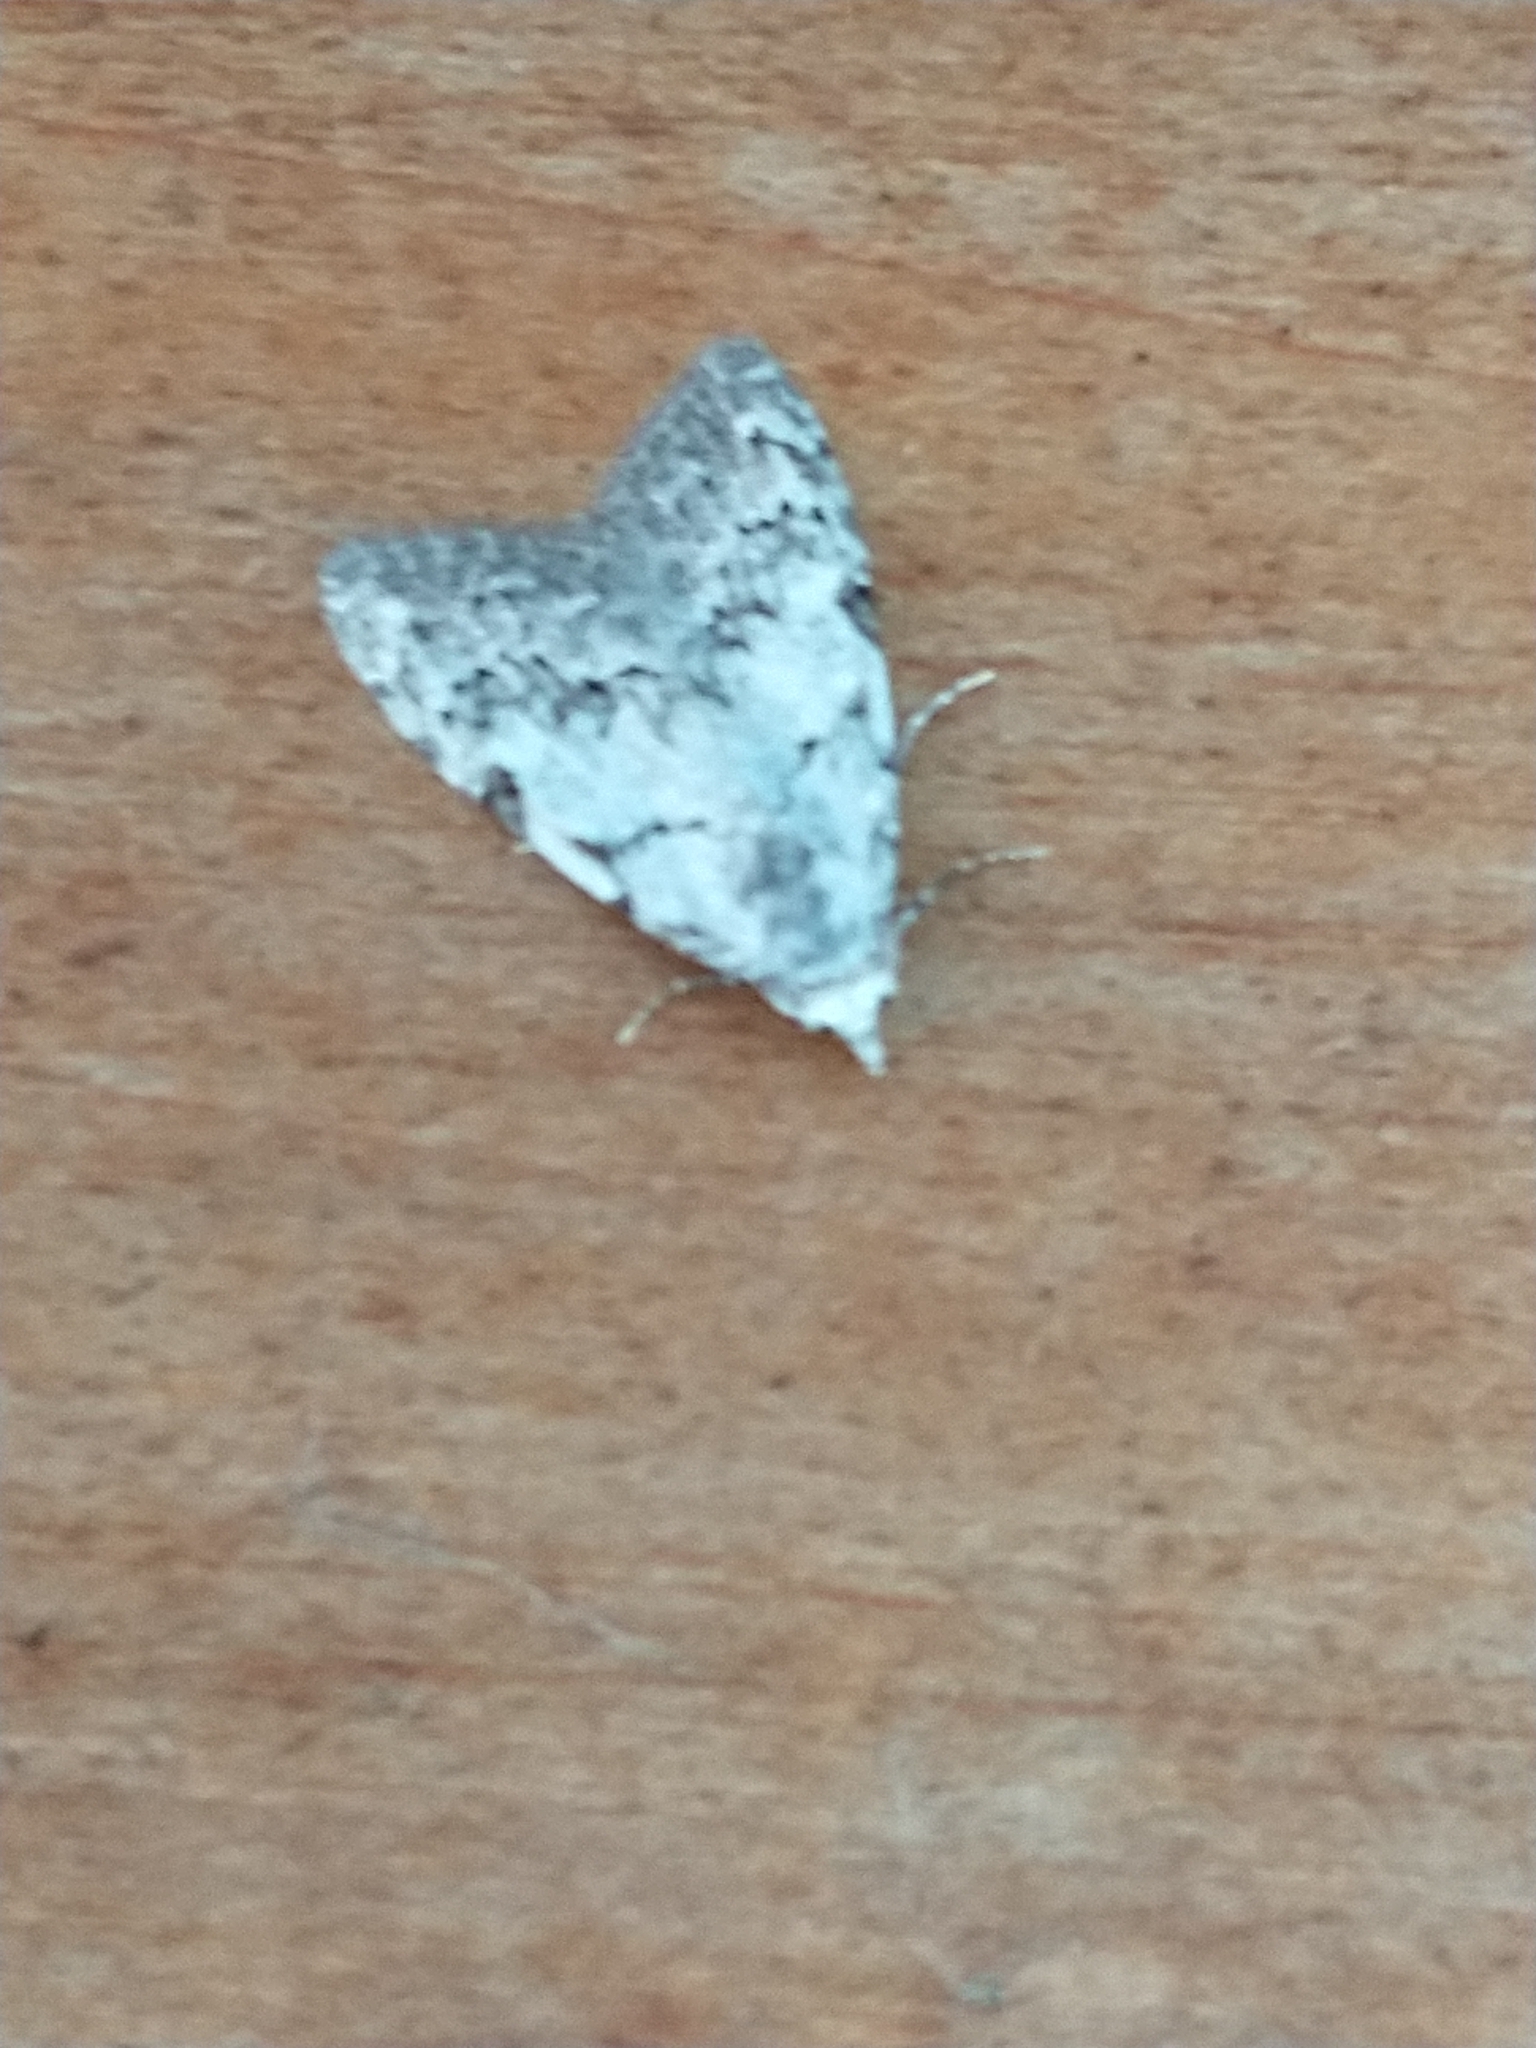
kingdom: Animalia
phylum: Arthropoda
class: Insecta
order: Lepidoptera
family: Nolidae
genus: Nola
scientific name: Nola confusalis
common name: Least black arches
